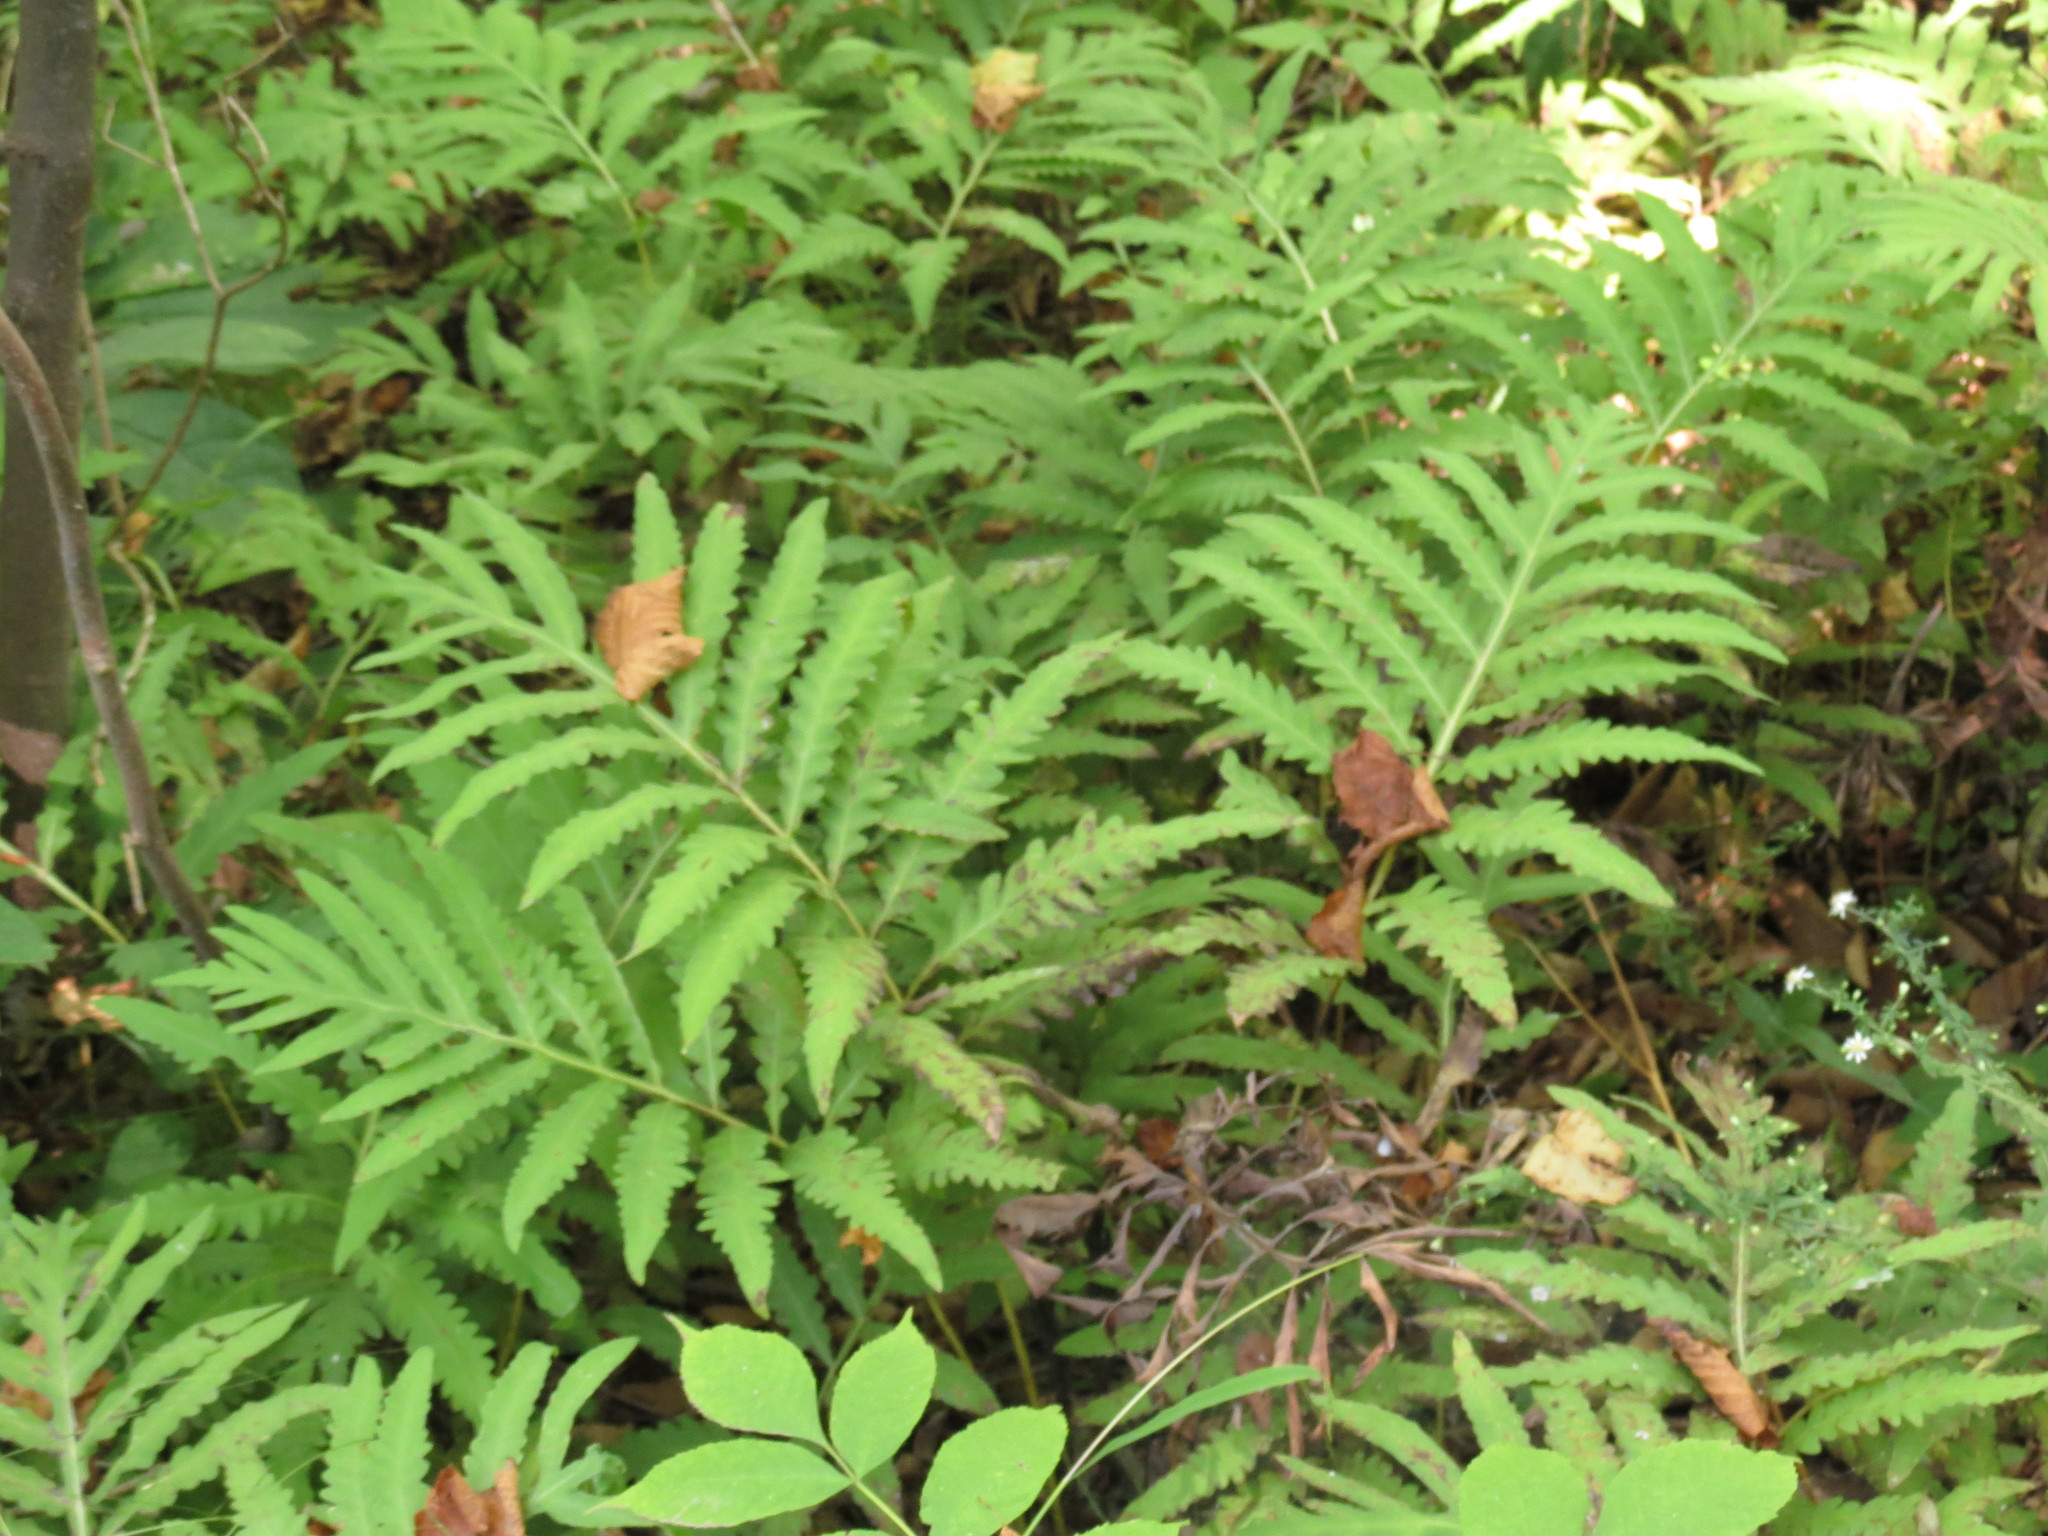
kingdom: Plantae
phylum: Tracheophyta
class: Polypodiopsida
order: Polypodiales
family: Onocleaceae
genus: Onoclea
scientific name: Onoclea sensibilis
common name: Sensitive fern
